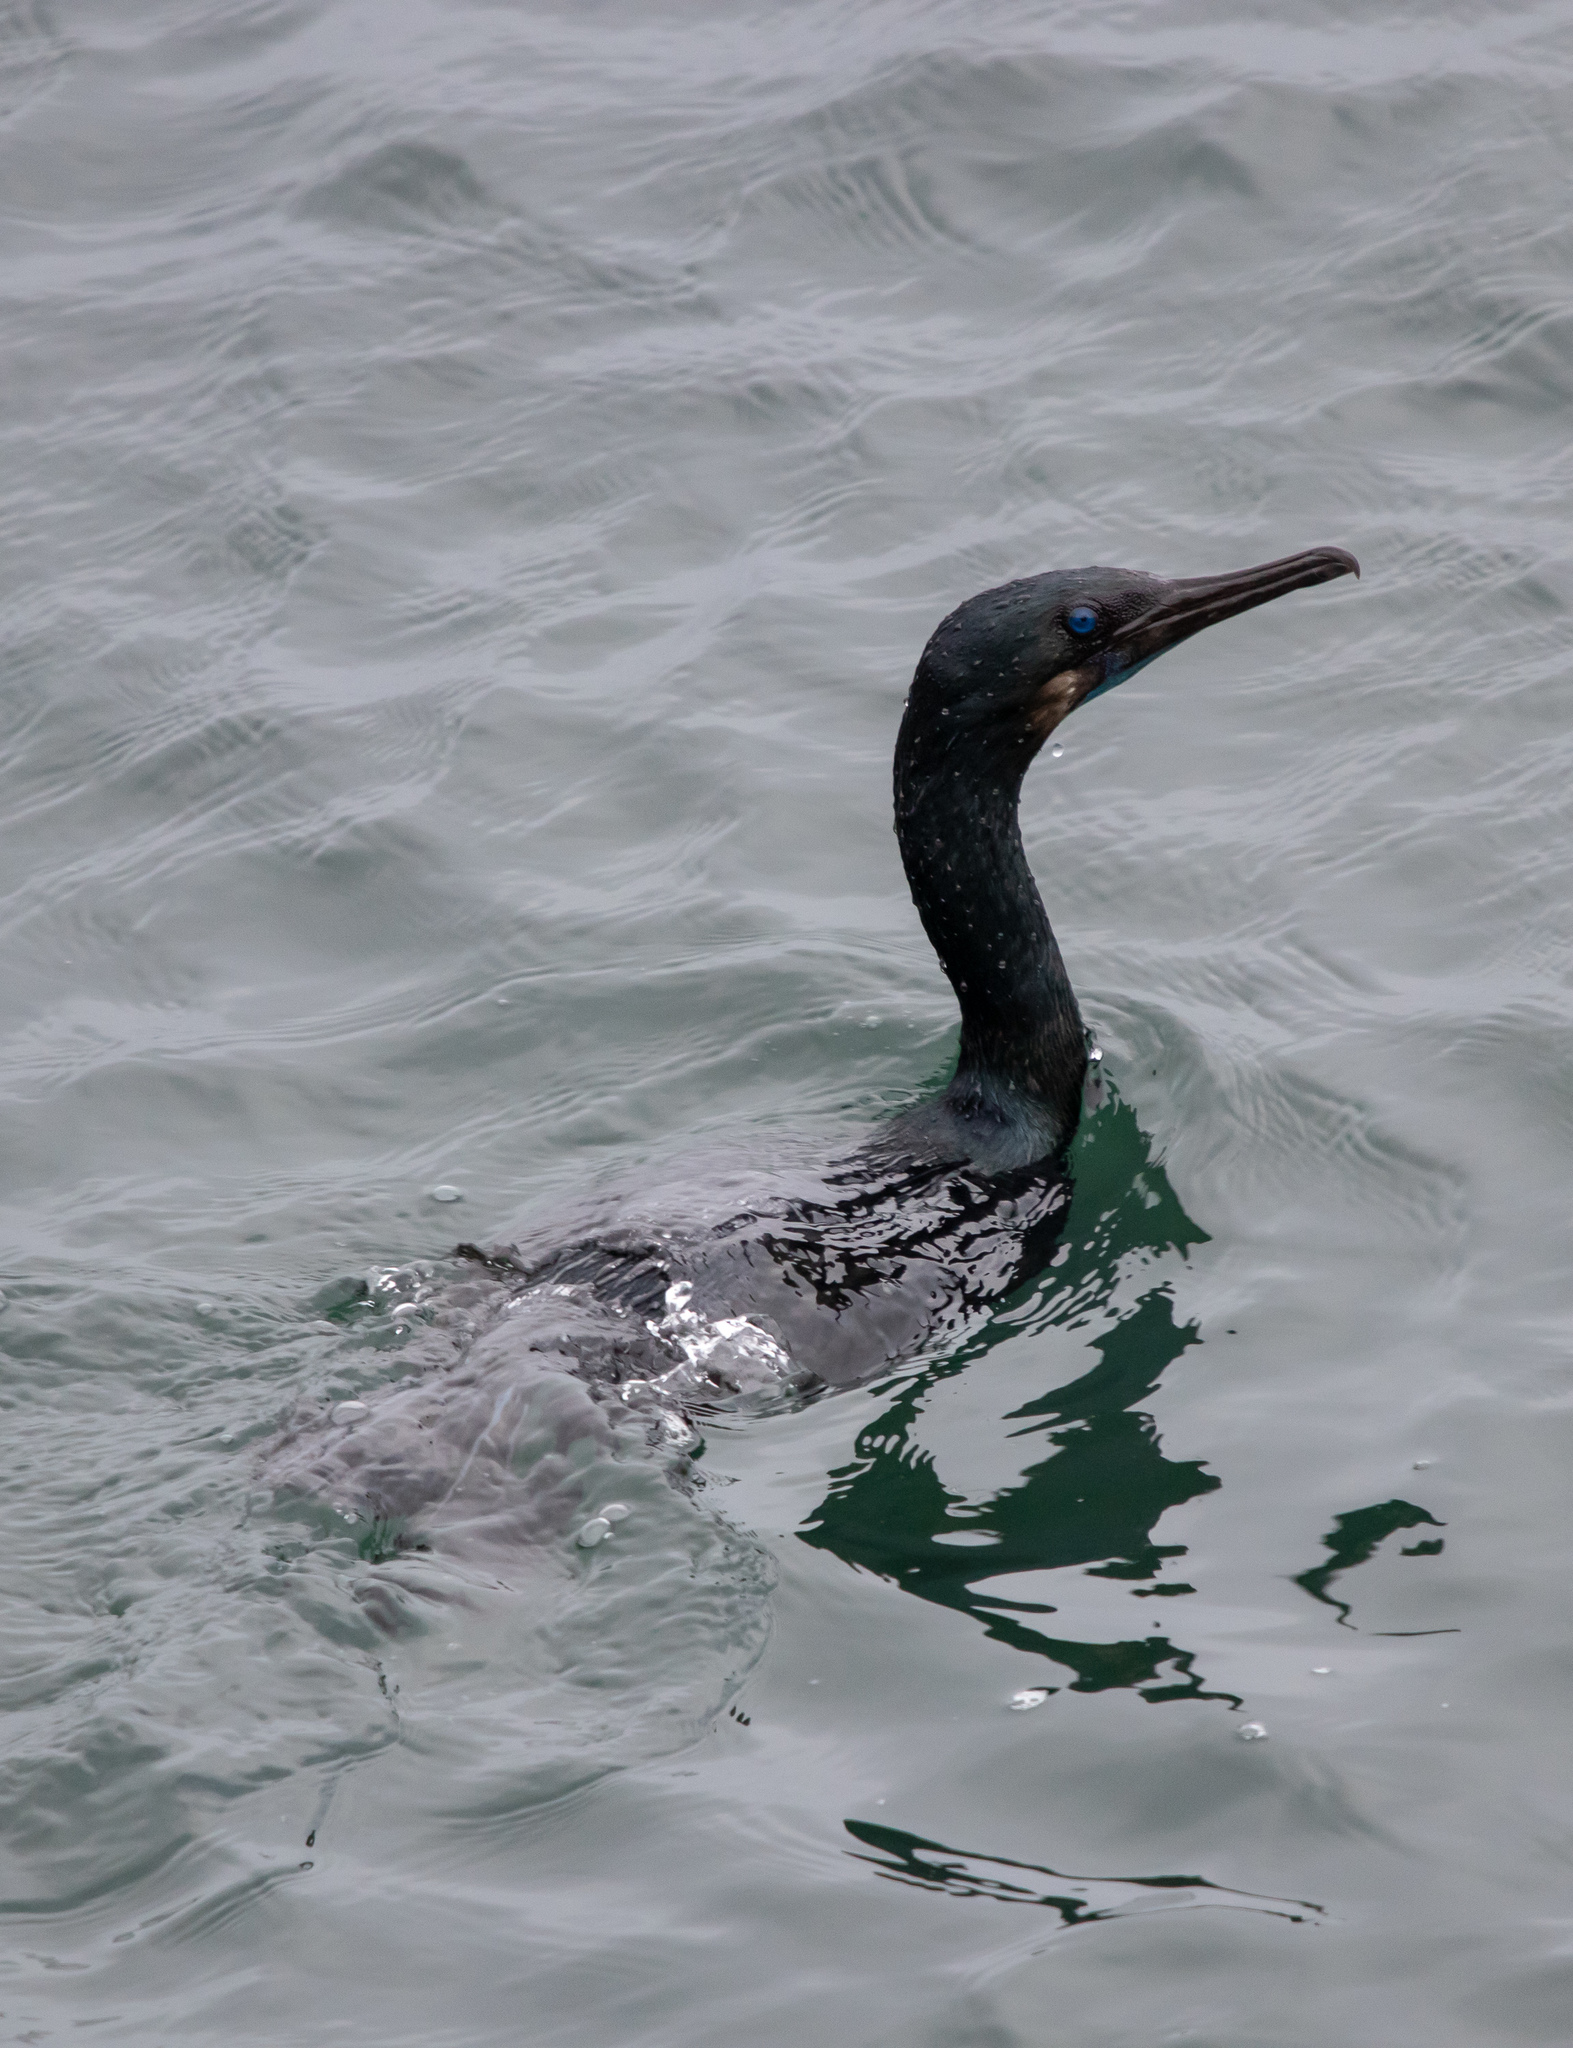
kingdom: Animalia
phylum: Chordata
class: Aves
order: Suliformes
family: Phalacrocoracidae
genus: Urile
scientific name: Urile penicillatus
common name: Brandt's cormorant
